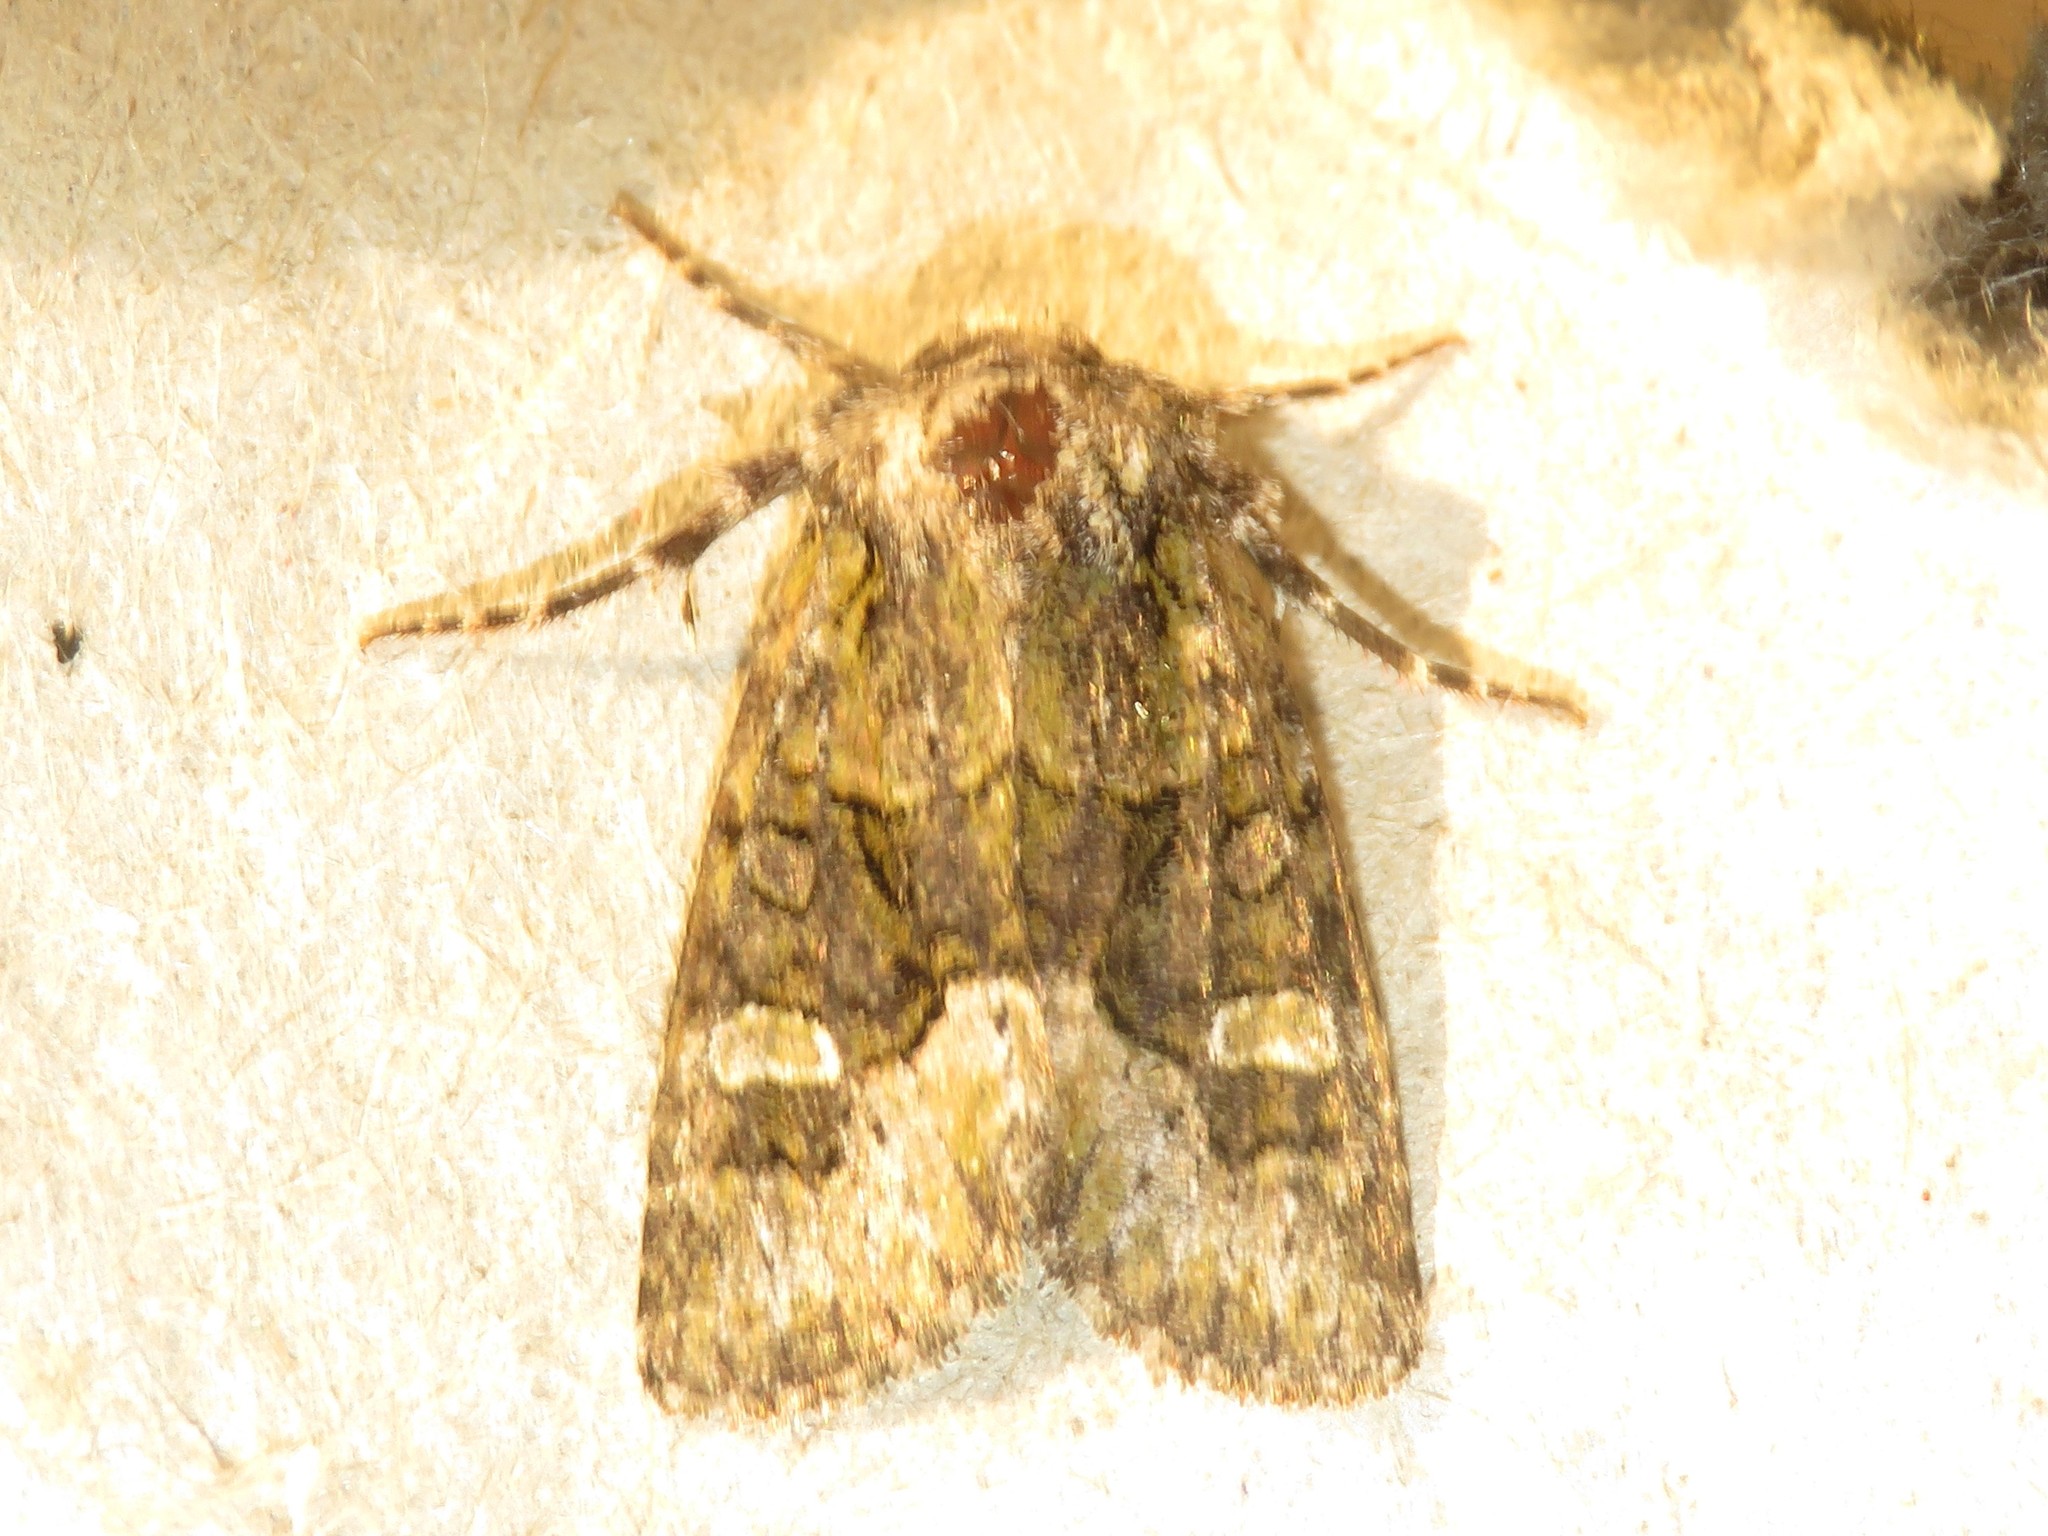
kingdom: Animalia
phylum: Arthropoda
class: Insecta
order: Lepidoptera
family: Noctuidae
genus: Lacinipolia
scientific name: Lacinipolia olivacea
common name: Olive arches moth
